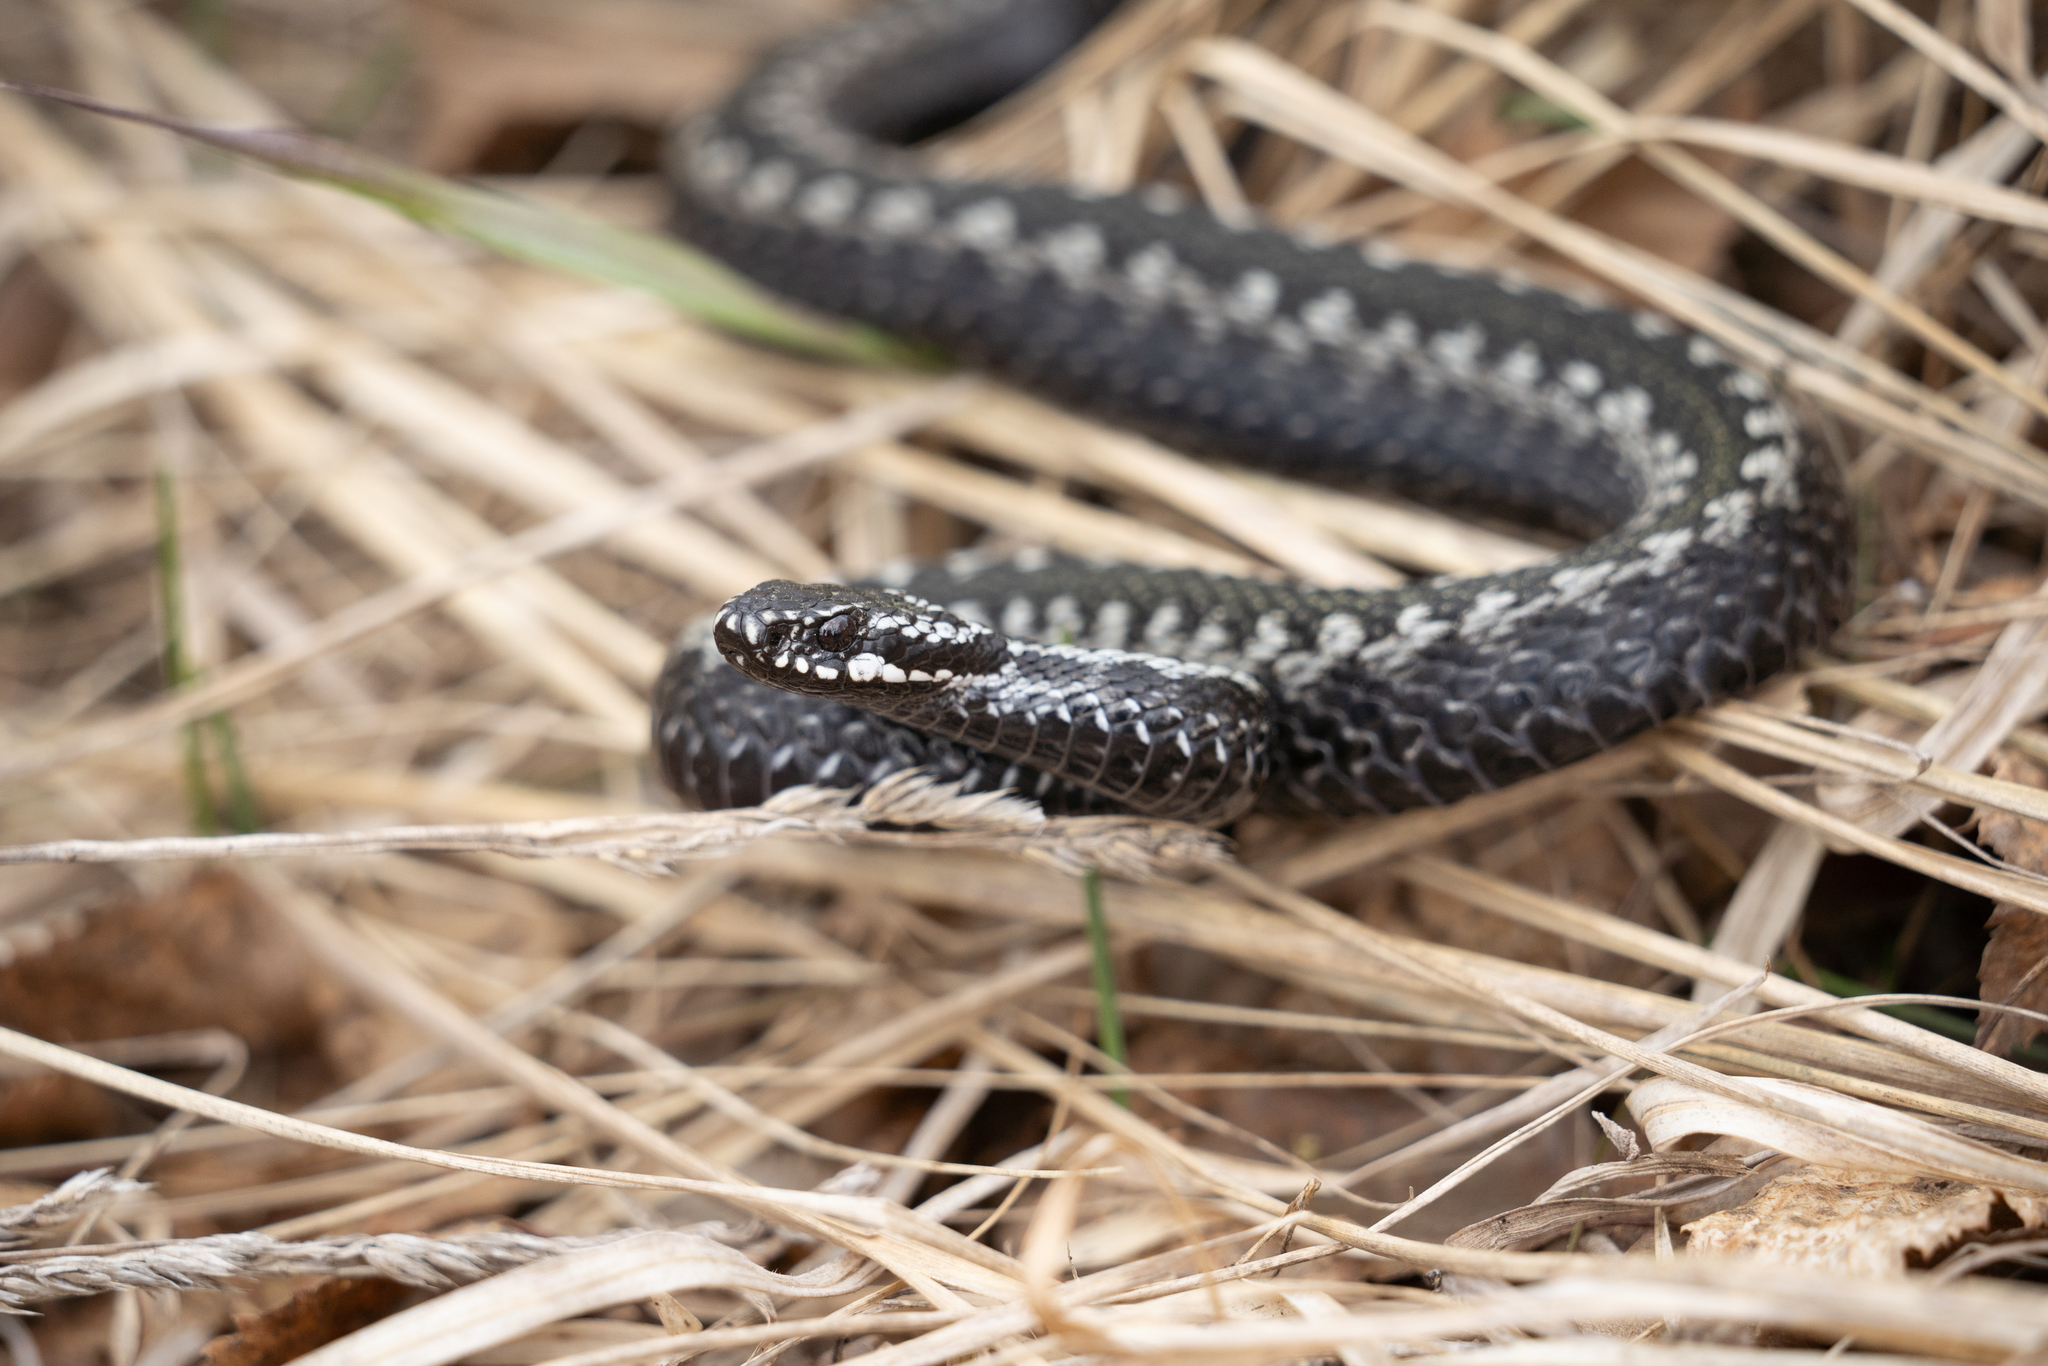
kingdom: Animalia
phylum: Chordata
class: Squamata
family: Viperidae
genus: Vipera
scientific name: Vipera berus
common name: Adder
